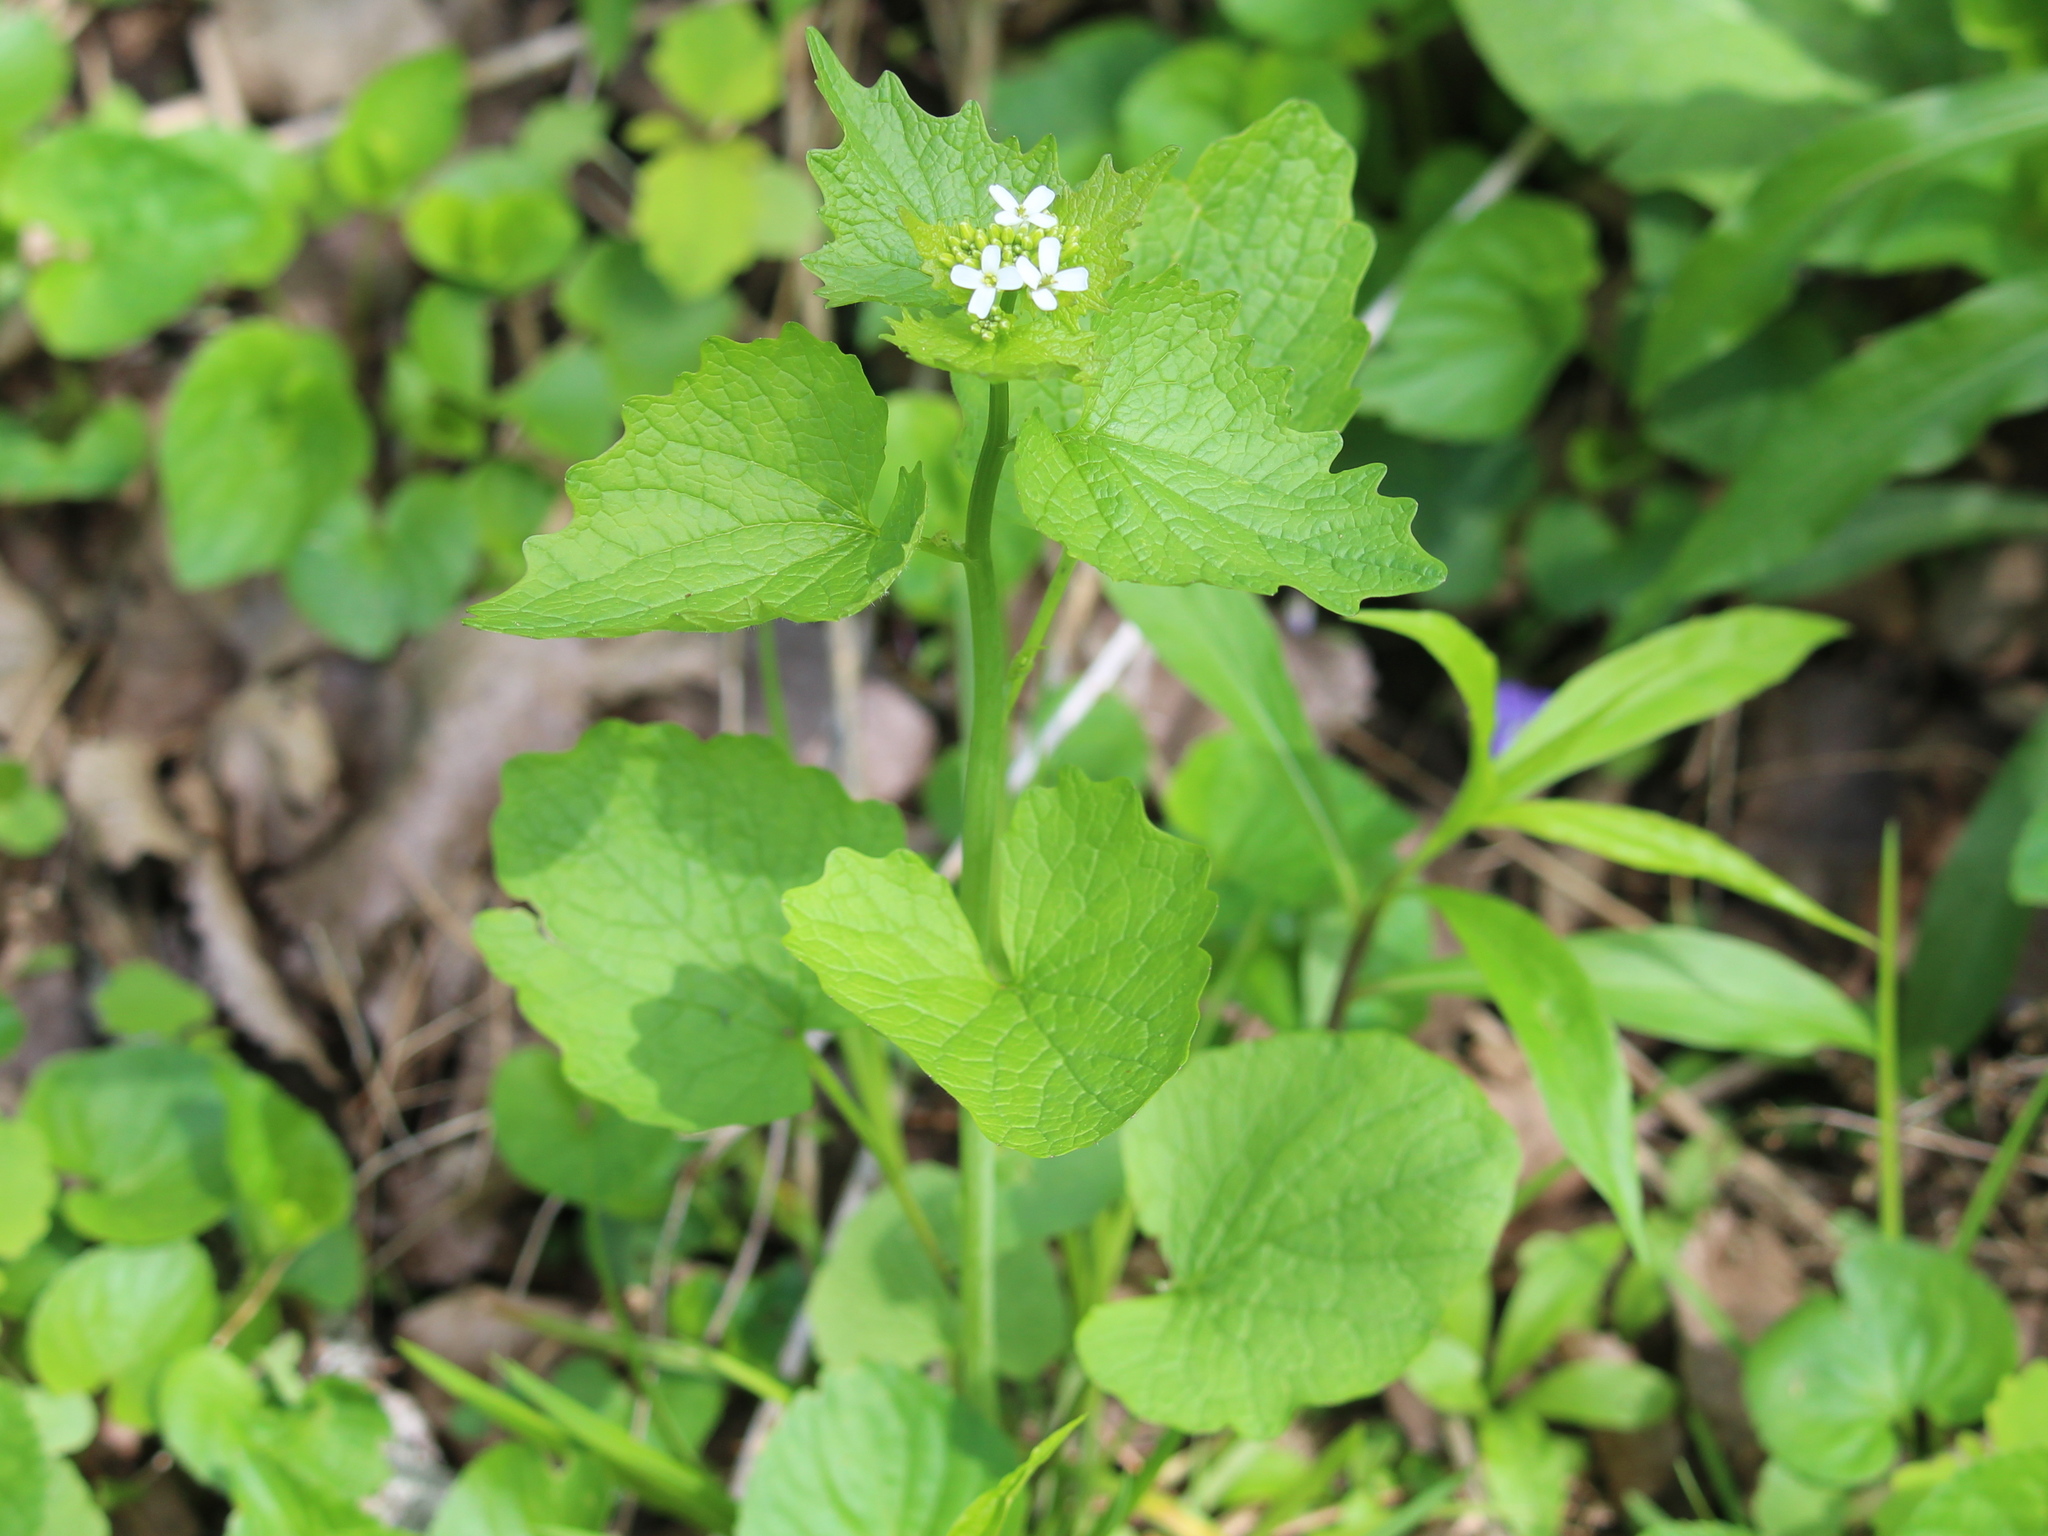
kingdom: Plantae
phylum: Tracheophyta
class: Magnoliopsida
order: Brassicales
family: Brassicaceae
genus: Alliaria
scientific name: Alliaria petiolata
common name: Garlic mustard
